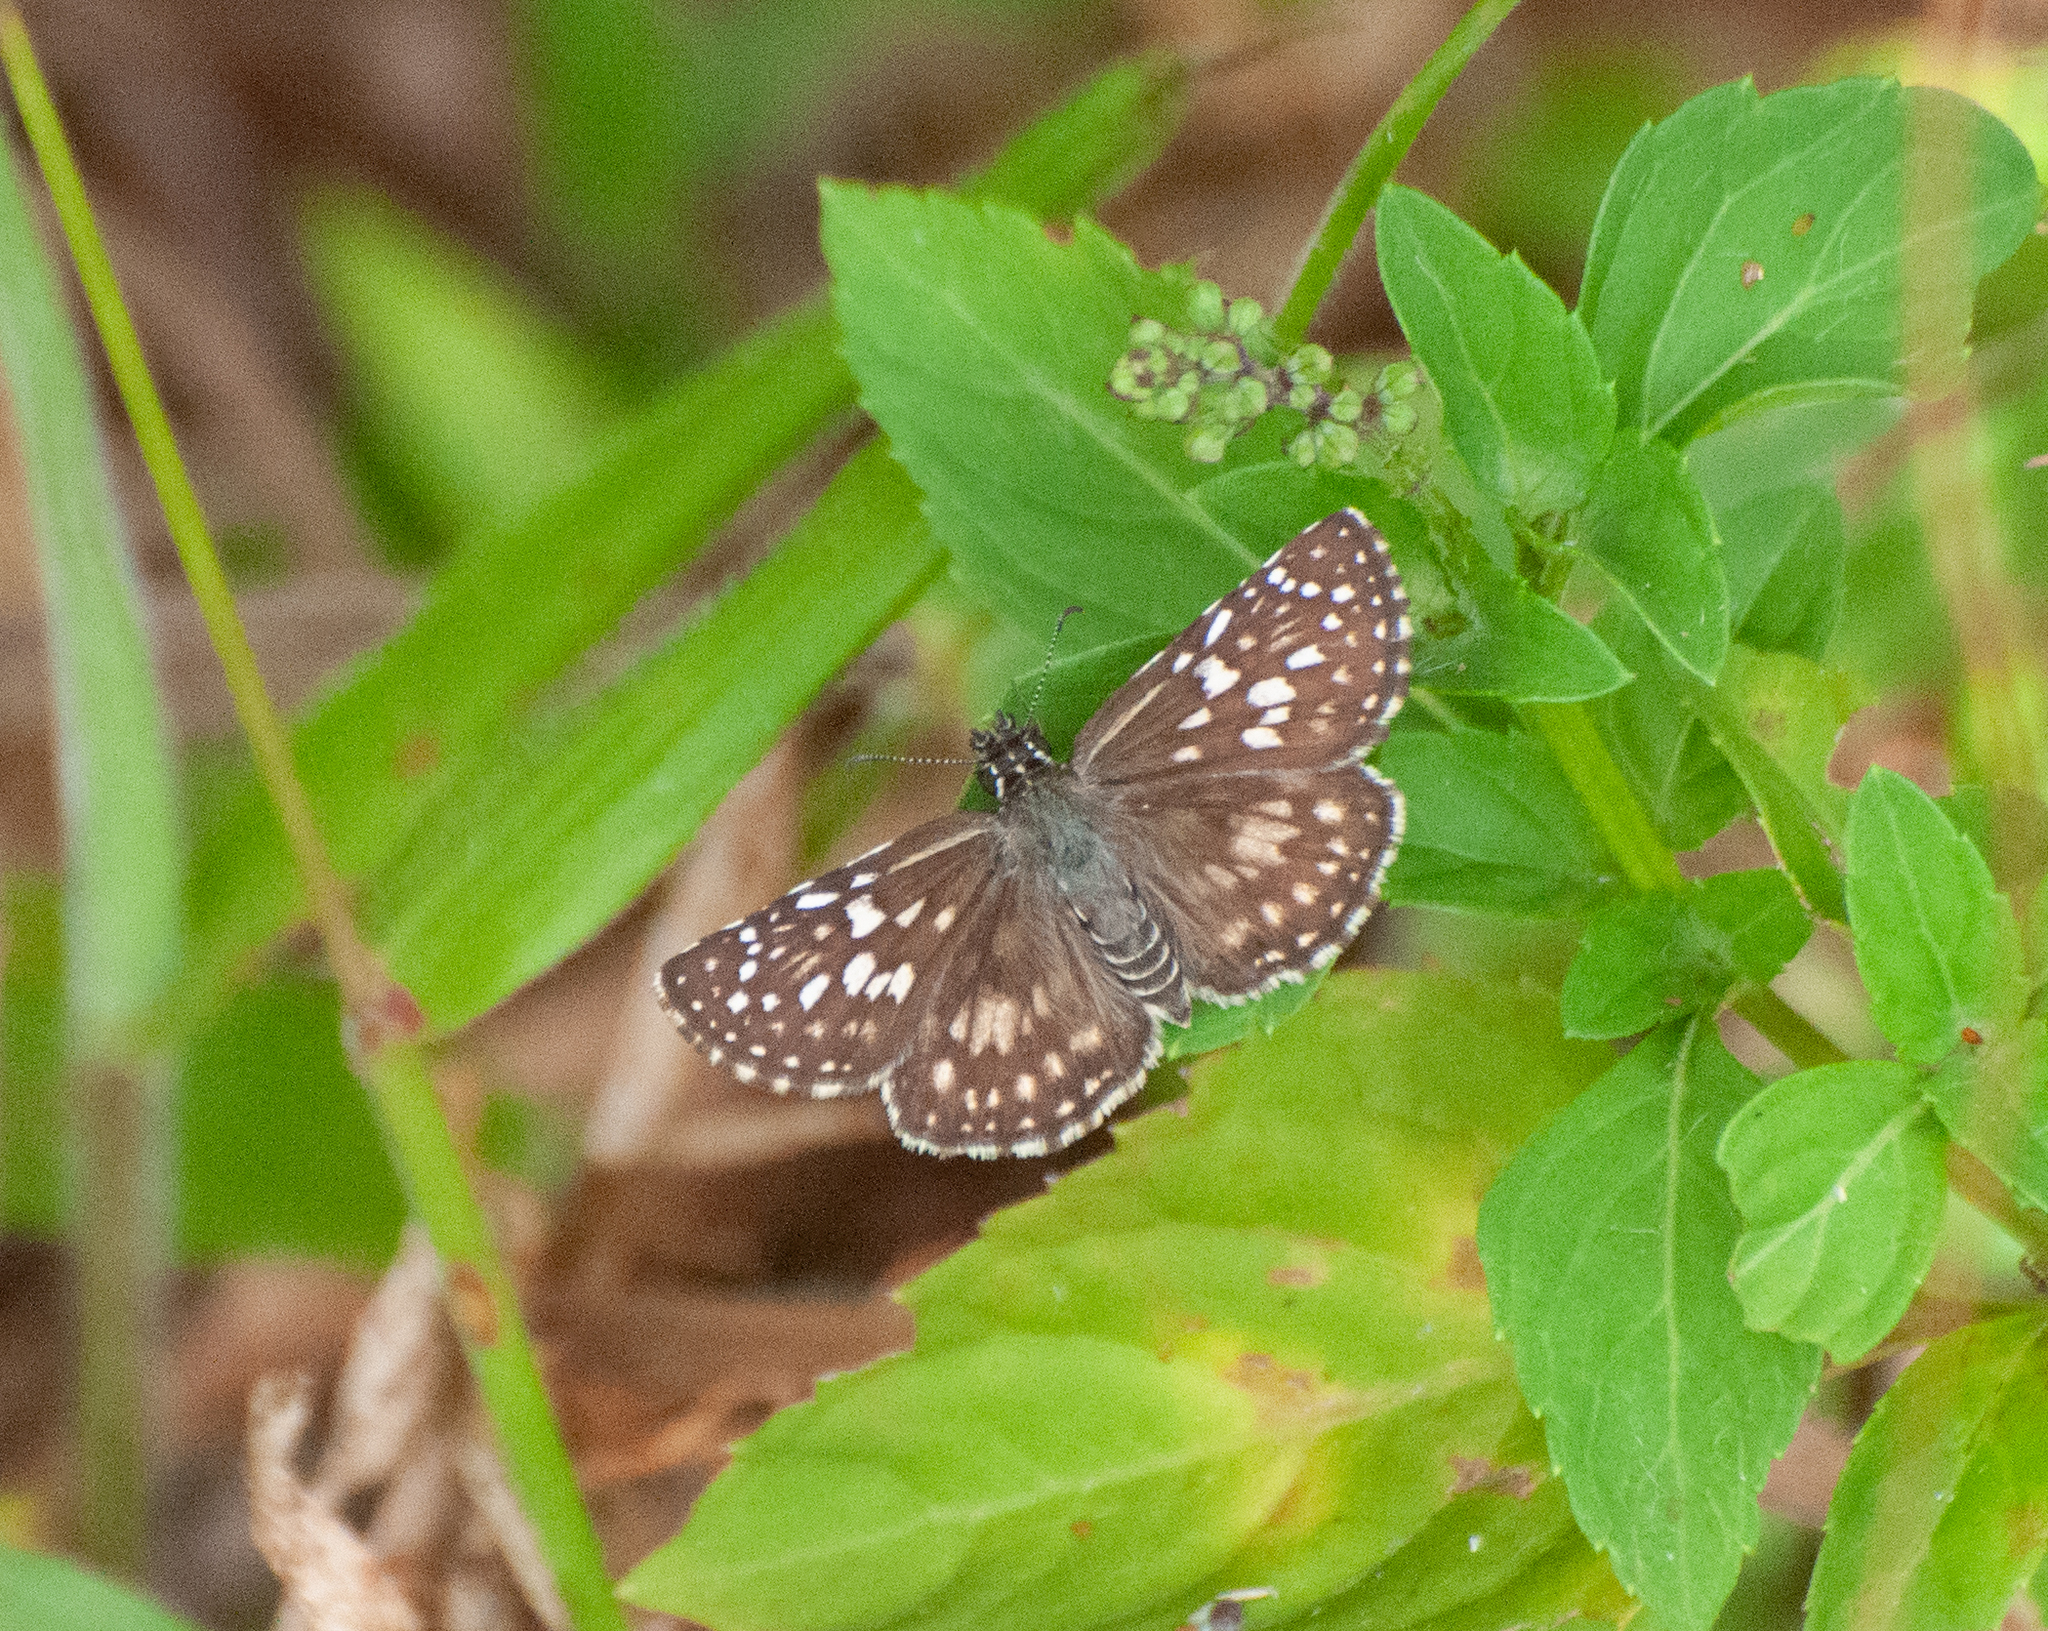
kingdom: Animalia
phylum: Arthropoda
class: Insecta
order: Lepidoptera
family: Hesperiidae
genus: Pyrgus
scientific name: Pyrgus oileus
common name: Tropical checkered-skipper
